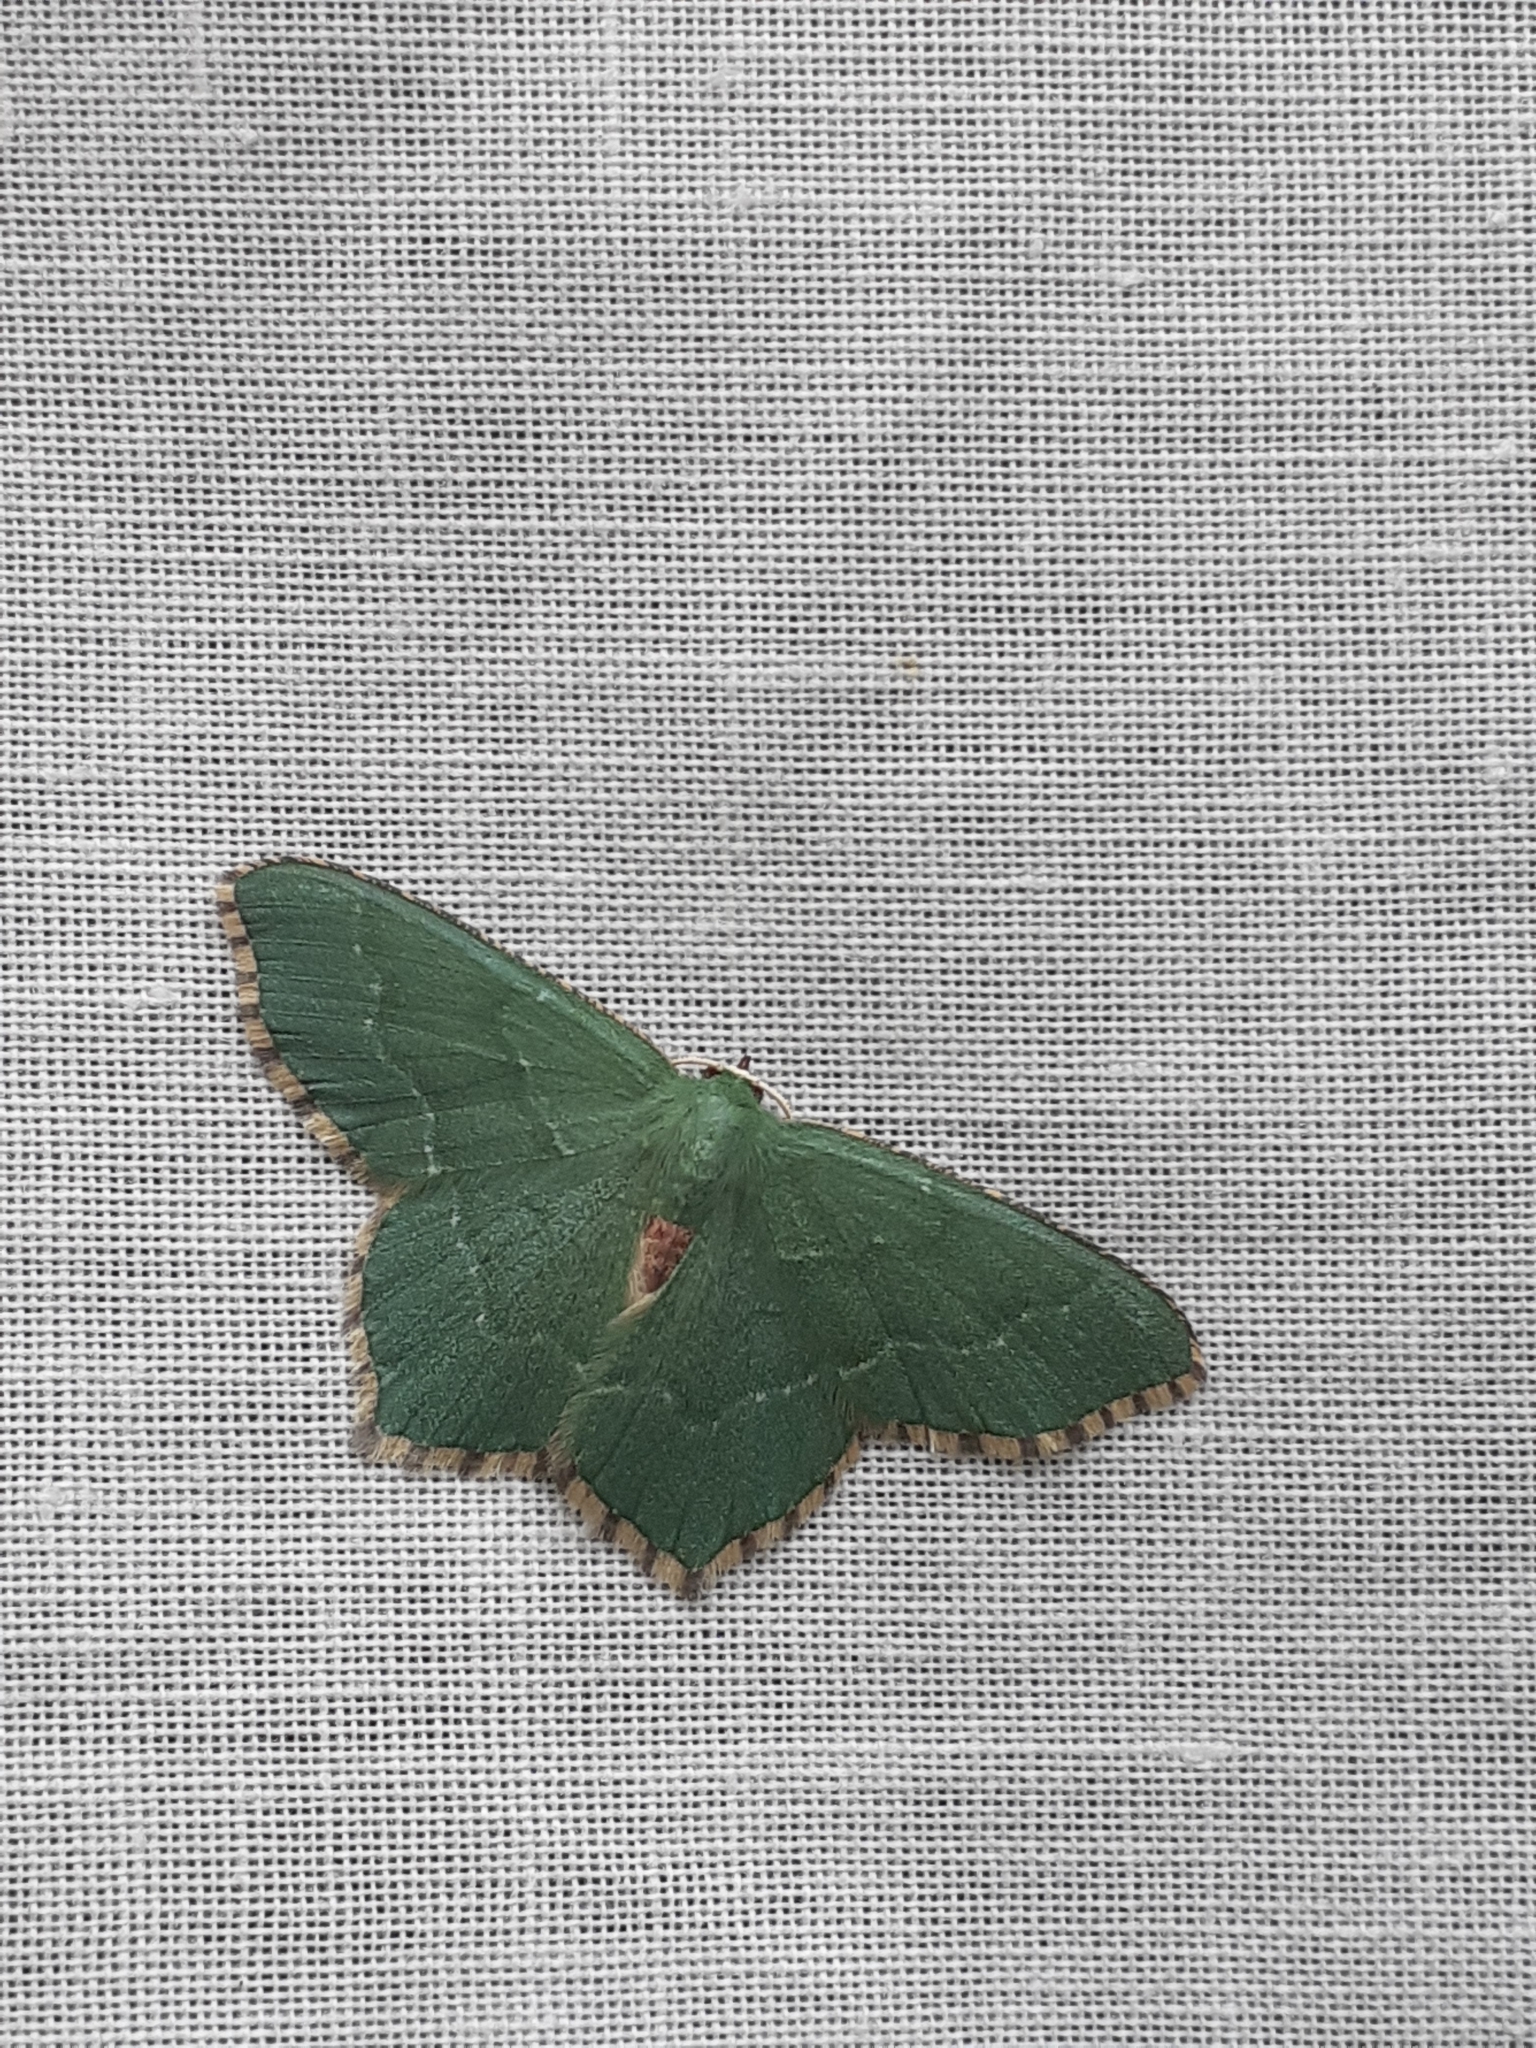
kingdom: Animalia
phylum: Arthropoda
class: Insecta
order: Lepidoptera
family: Geometridae
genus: Hemithea
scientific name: Hemithea aestivaria
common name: Common emerald
